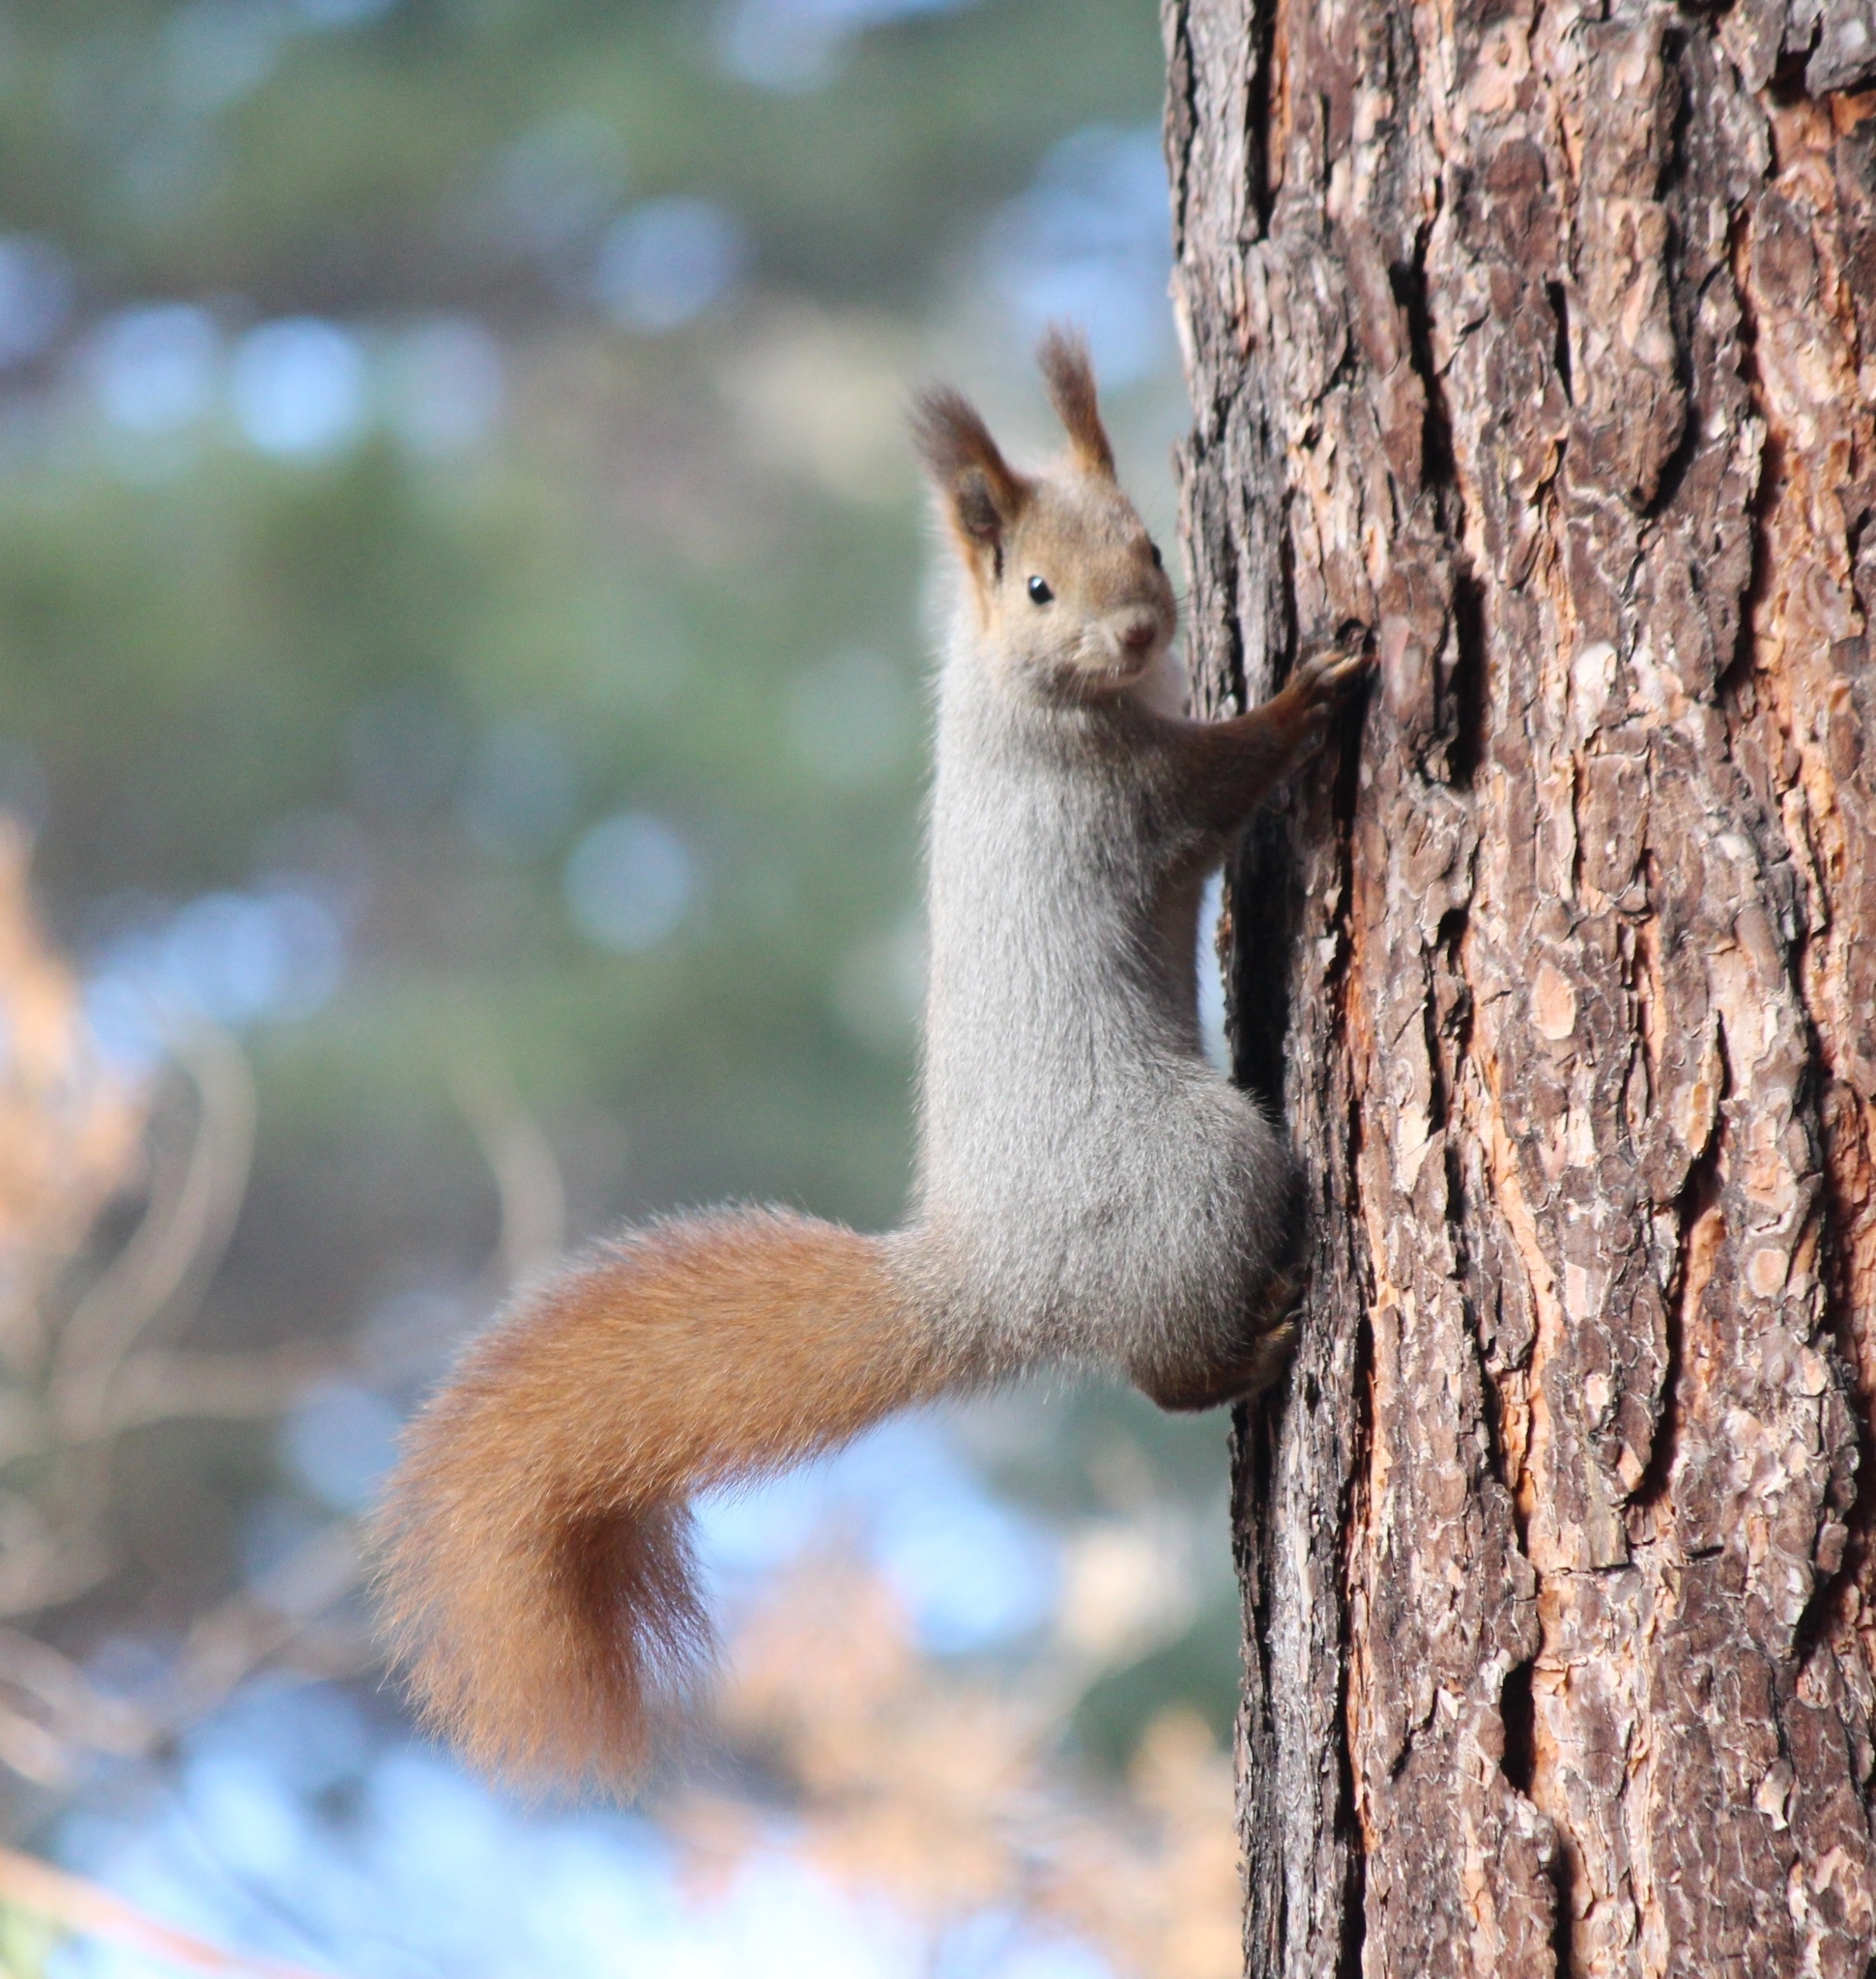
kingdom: Animalia
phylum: Chordata
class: Mammalia
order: Rodentia
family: Sciuridae
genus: Sciurus
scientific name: Sciurus vulgaris
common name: Eurasian red squirrel
